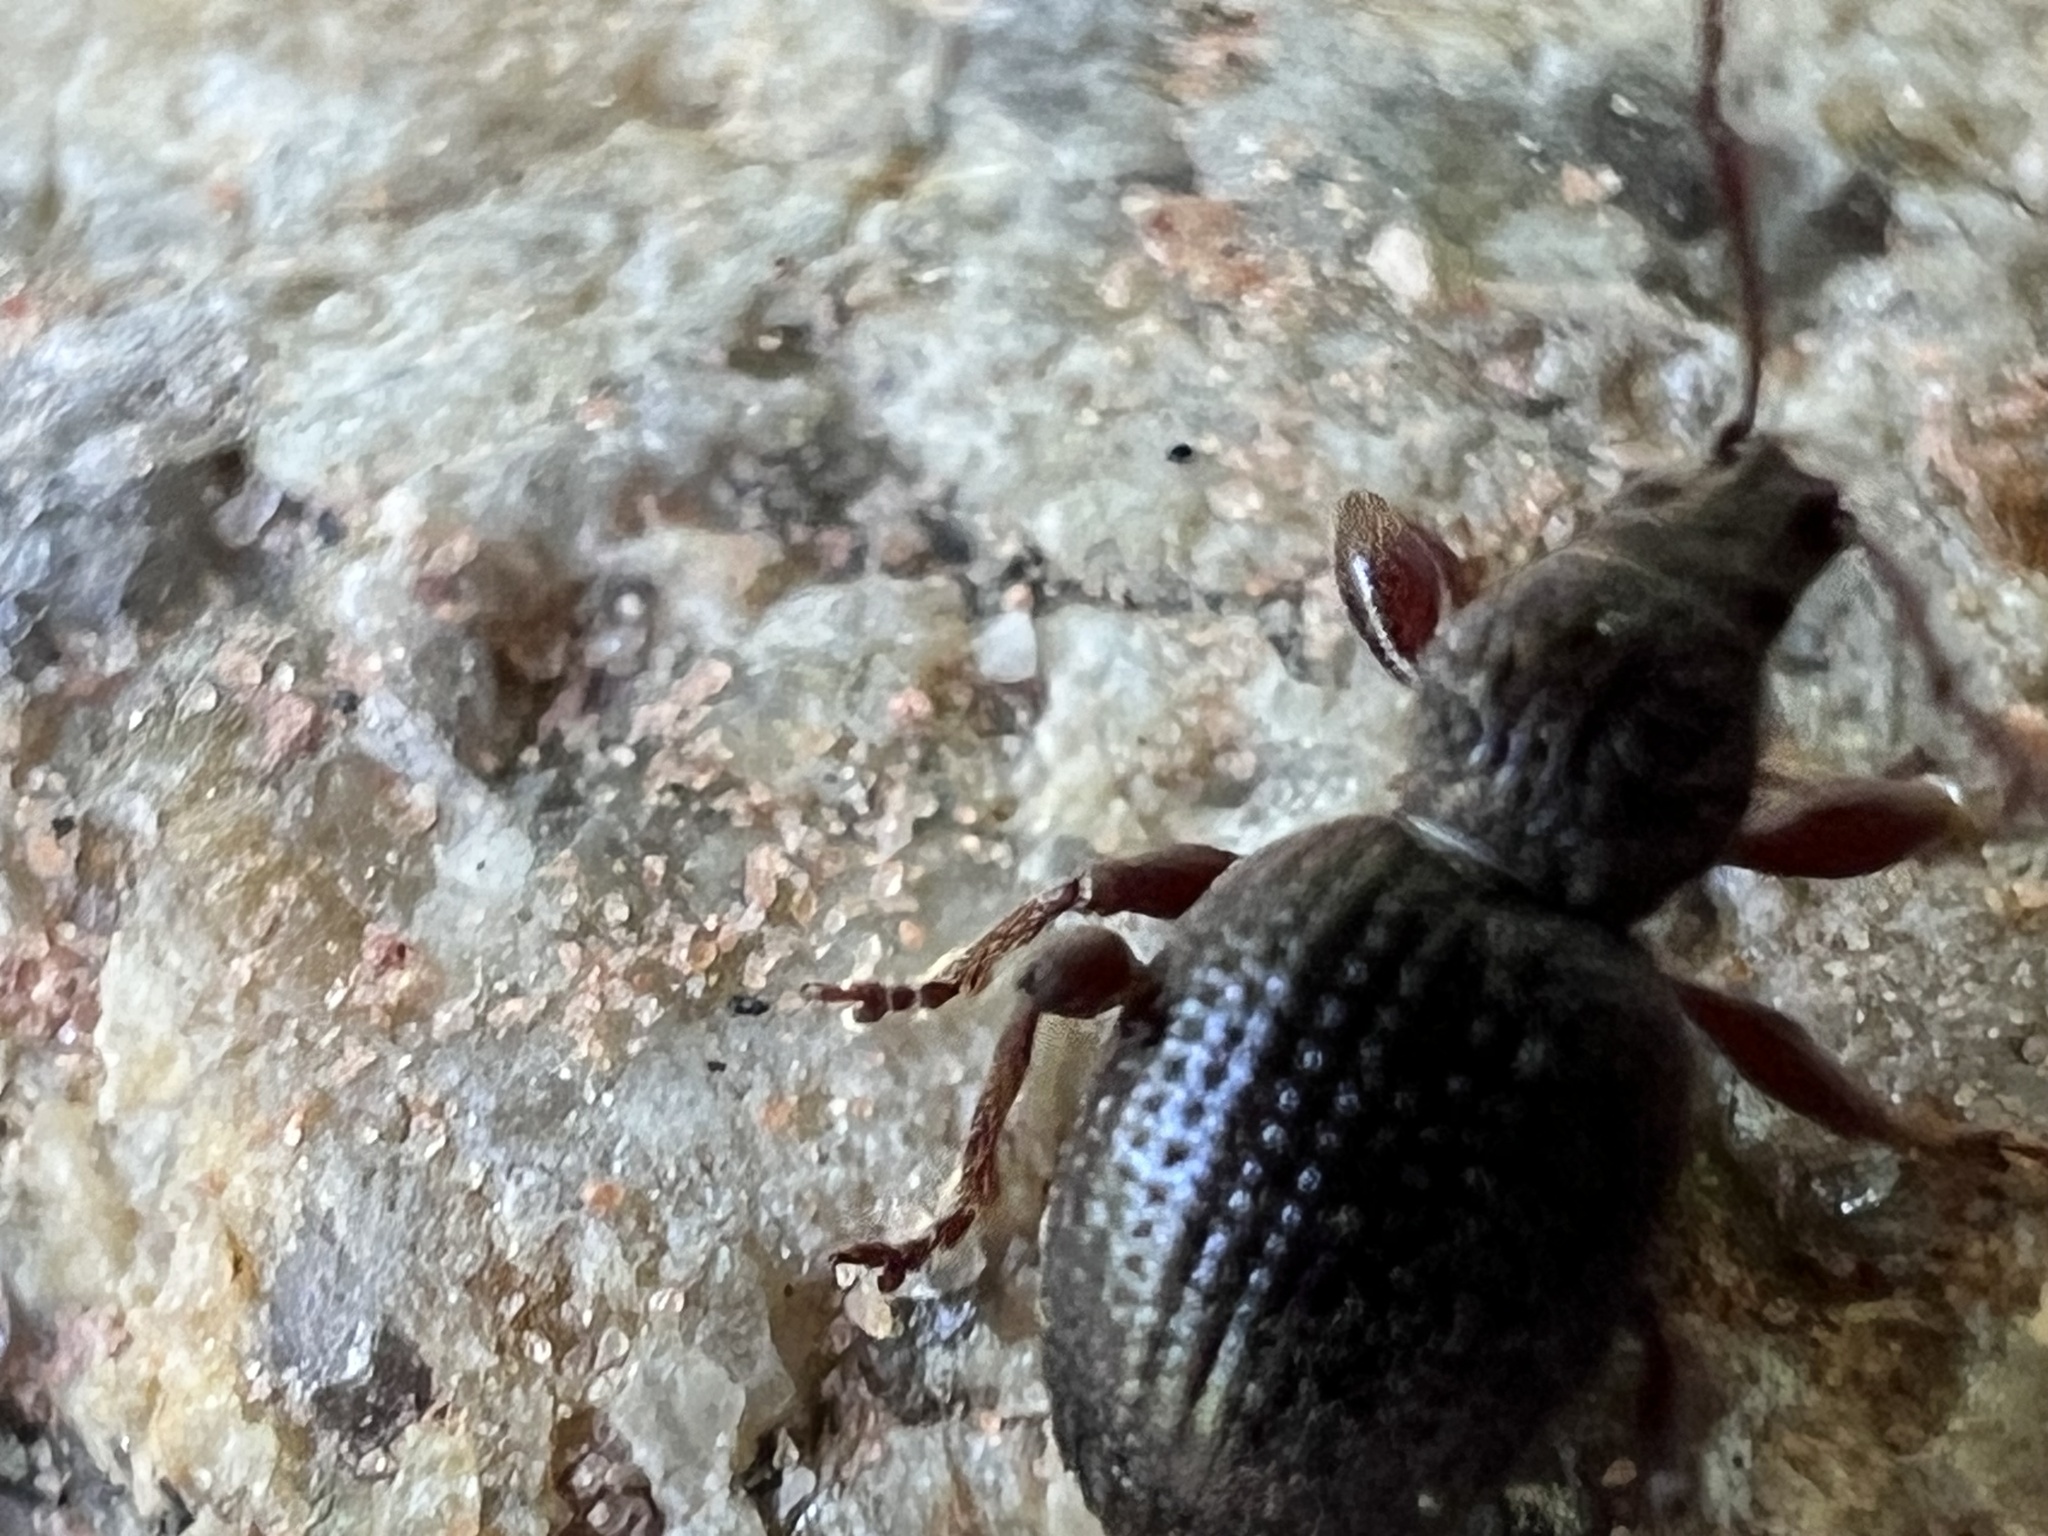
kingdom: Animalia
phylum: Arthropoda
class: Insecta
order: Coleoptera
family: Curculionidae
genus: Otiorhynchus
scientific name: Otiorhynchus ovatus
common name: Strawberry root weevil
